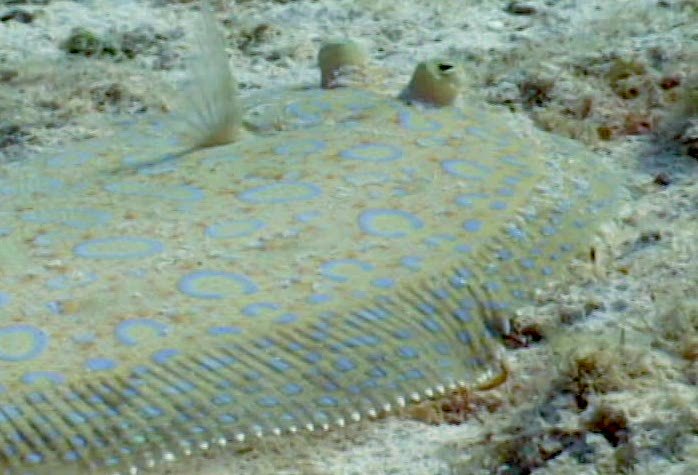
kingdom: Animalia
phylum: Chordata
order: Pleuronectiformes
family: Bothidae
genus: Bothus
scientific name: Bothus lunatus
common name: Peacock flounder
